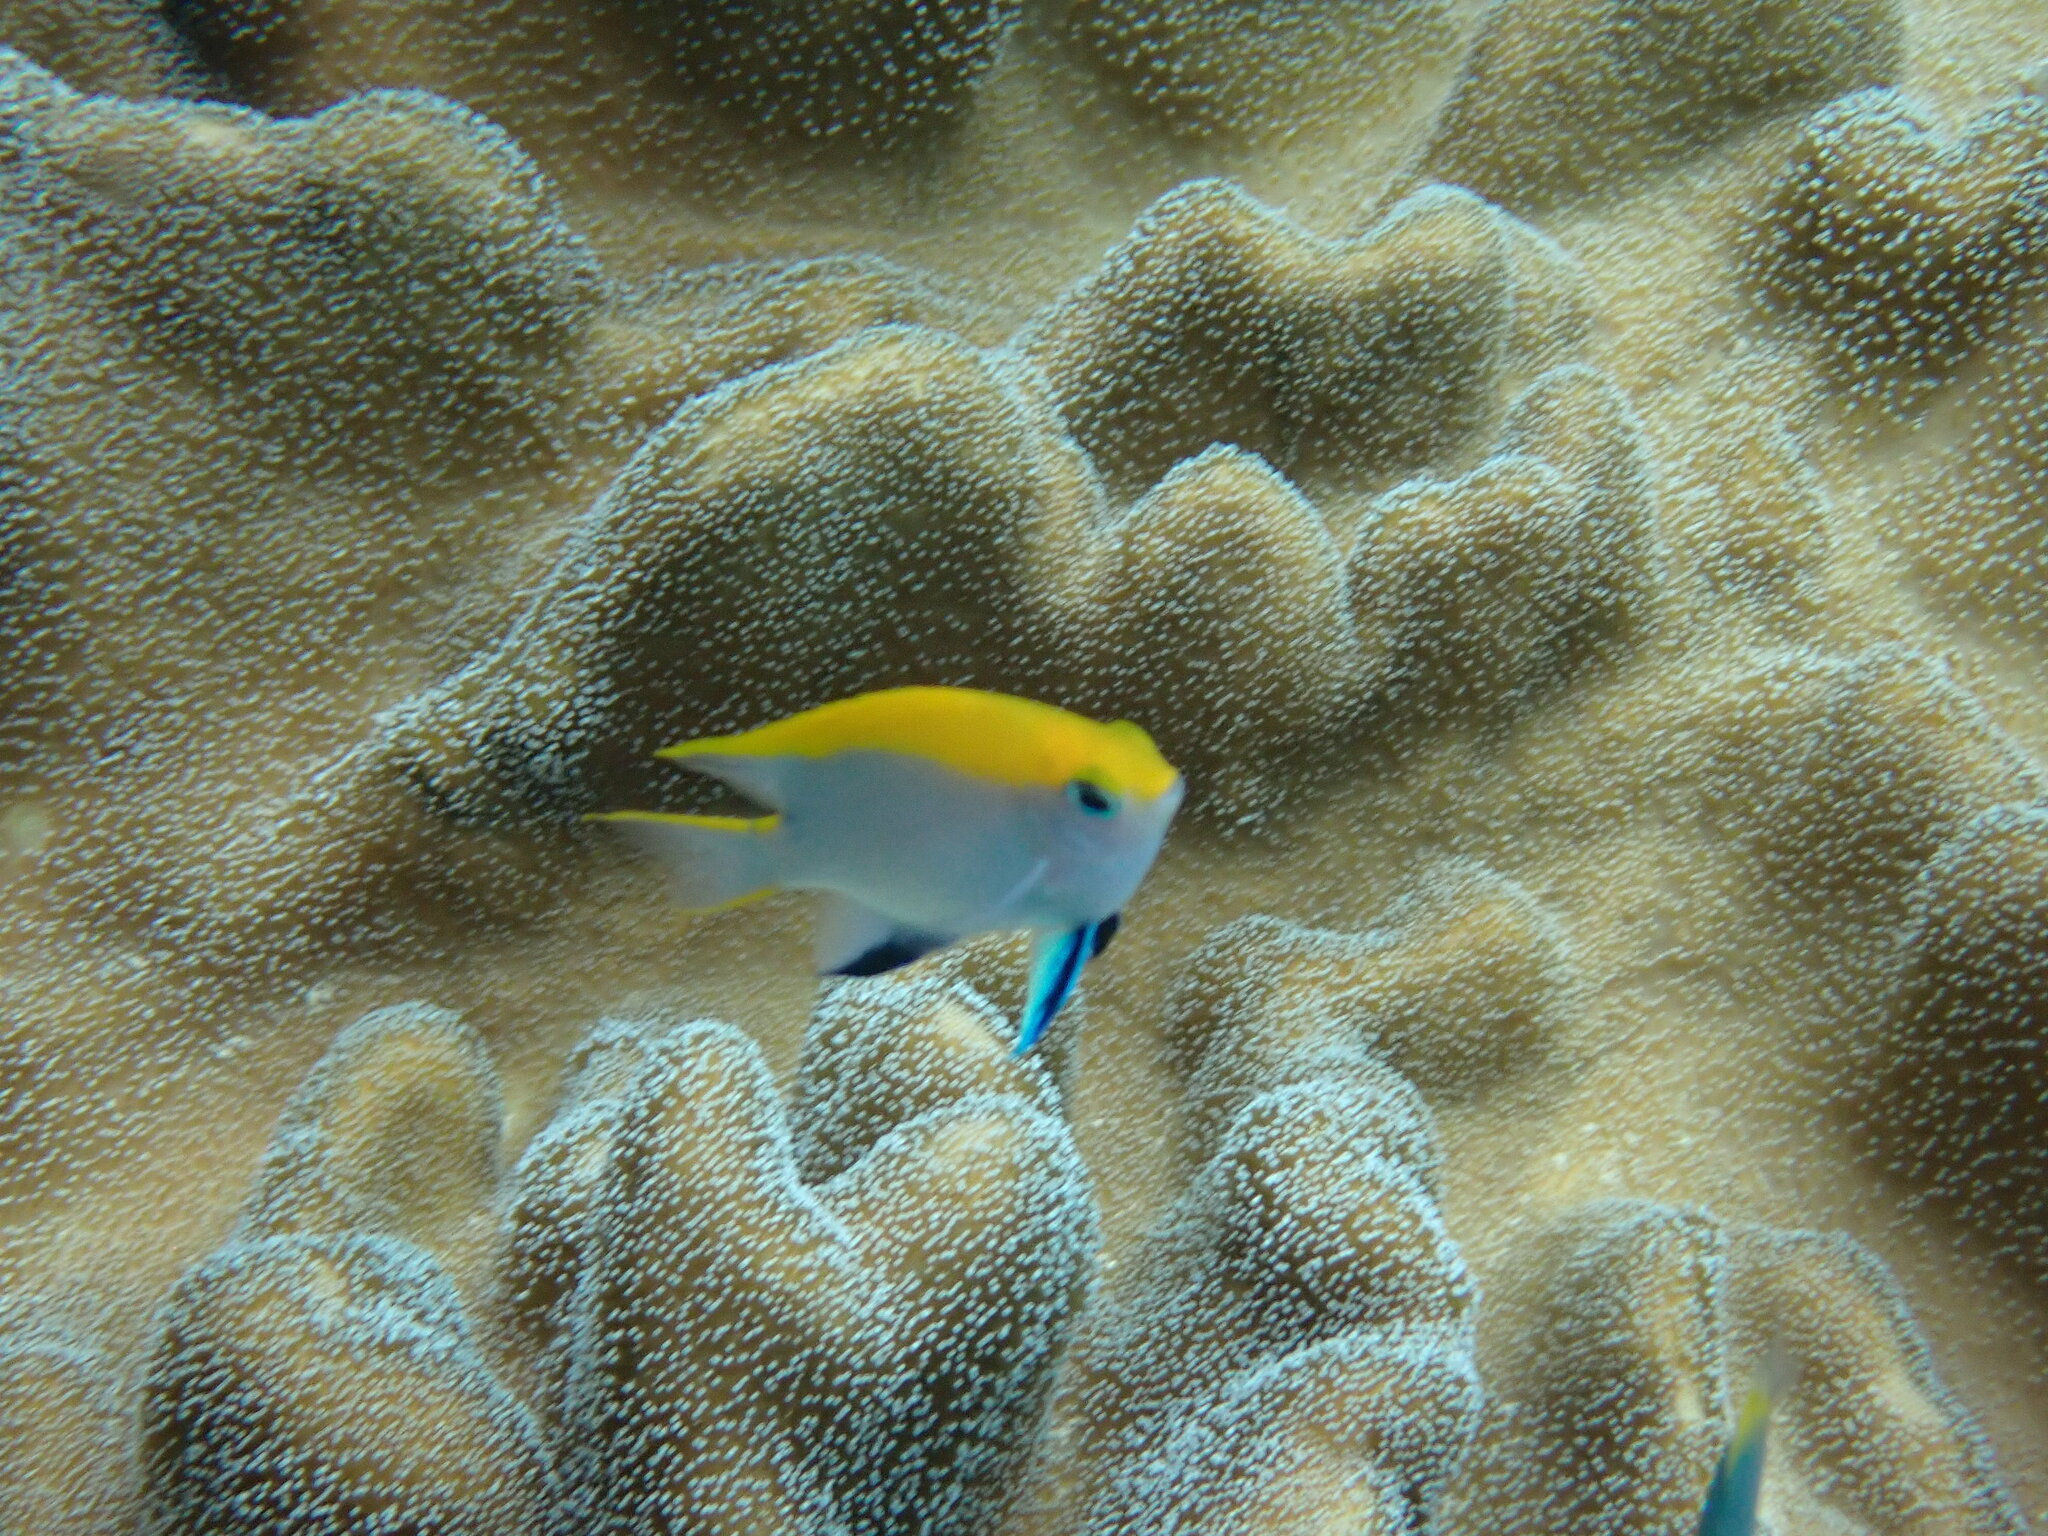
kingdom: Animalia
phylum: Chordata
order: Perciformes
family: Pomacentridae
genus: Neoglyphidodon
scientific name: Neoglyphidodon melas
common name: Black damsel
